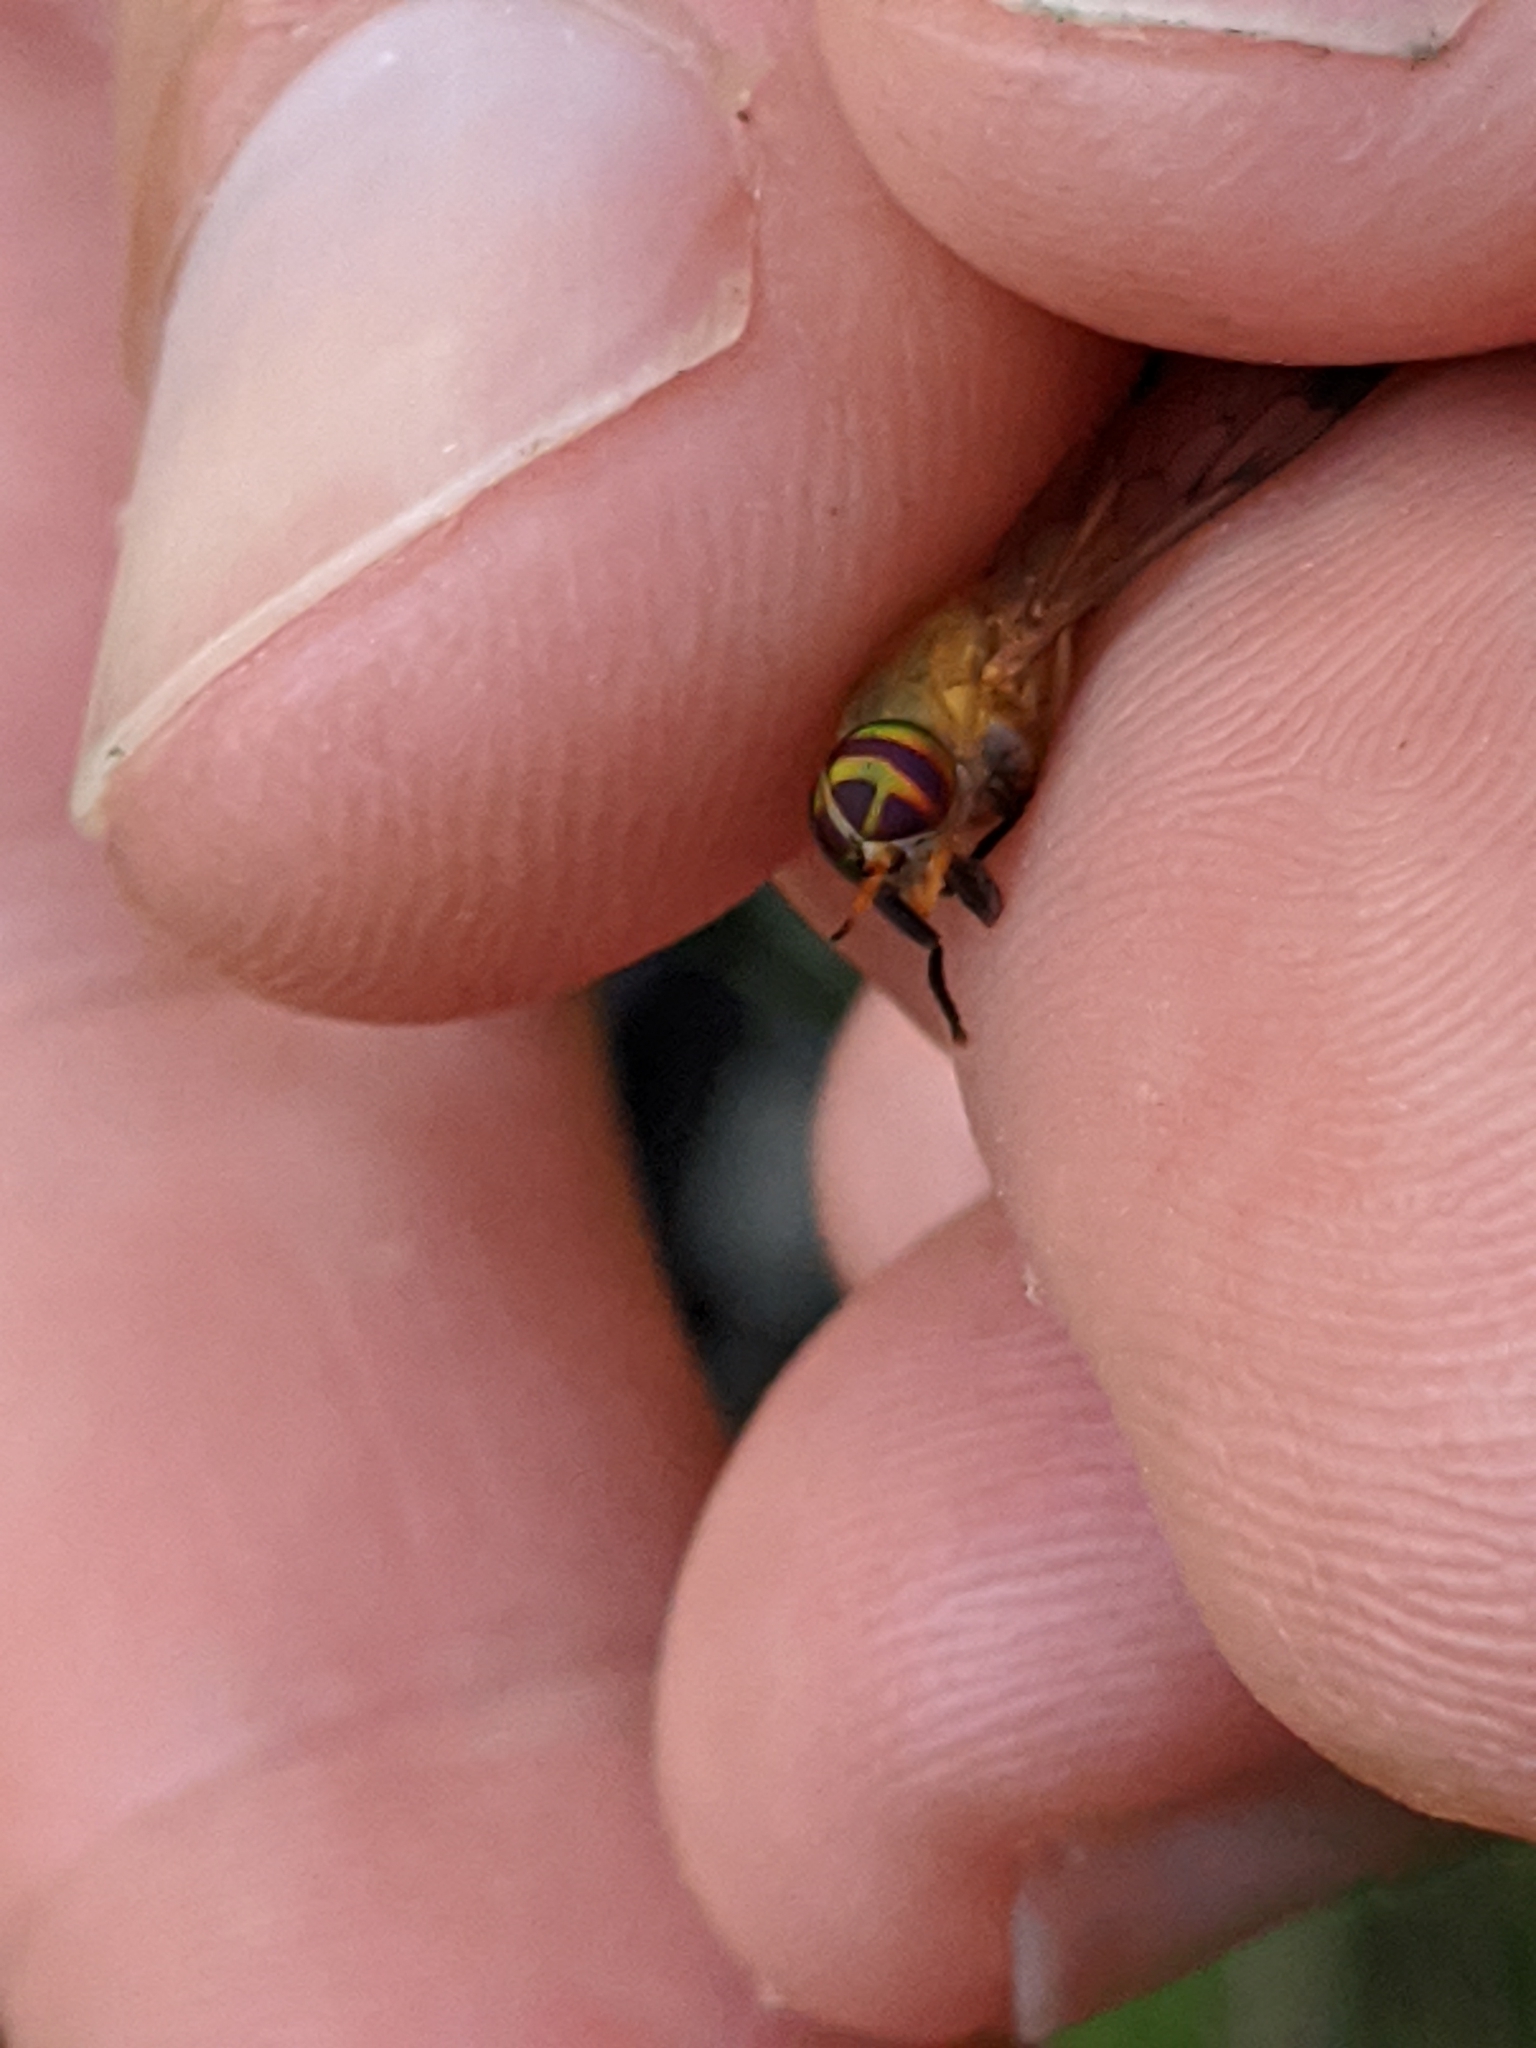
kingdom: Animalia
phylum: Arthropoda
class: Insecta
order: Diptera
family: Tabanidae
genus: Diachlorus
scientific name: Diachlorus ferrugatus
